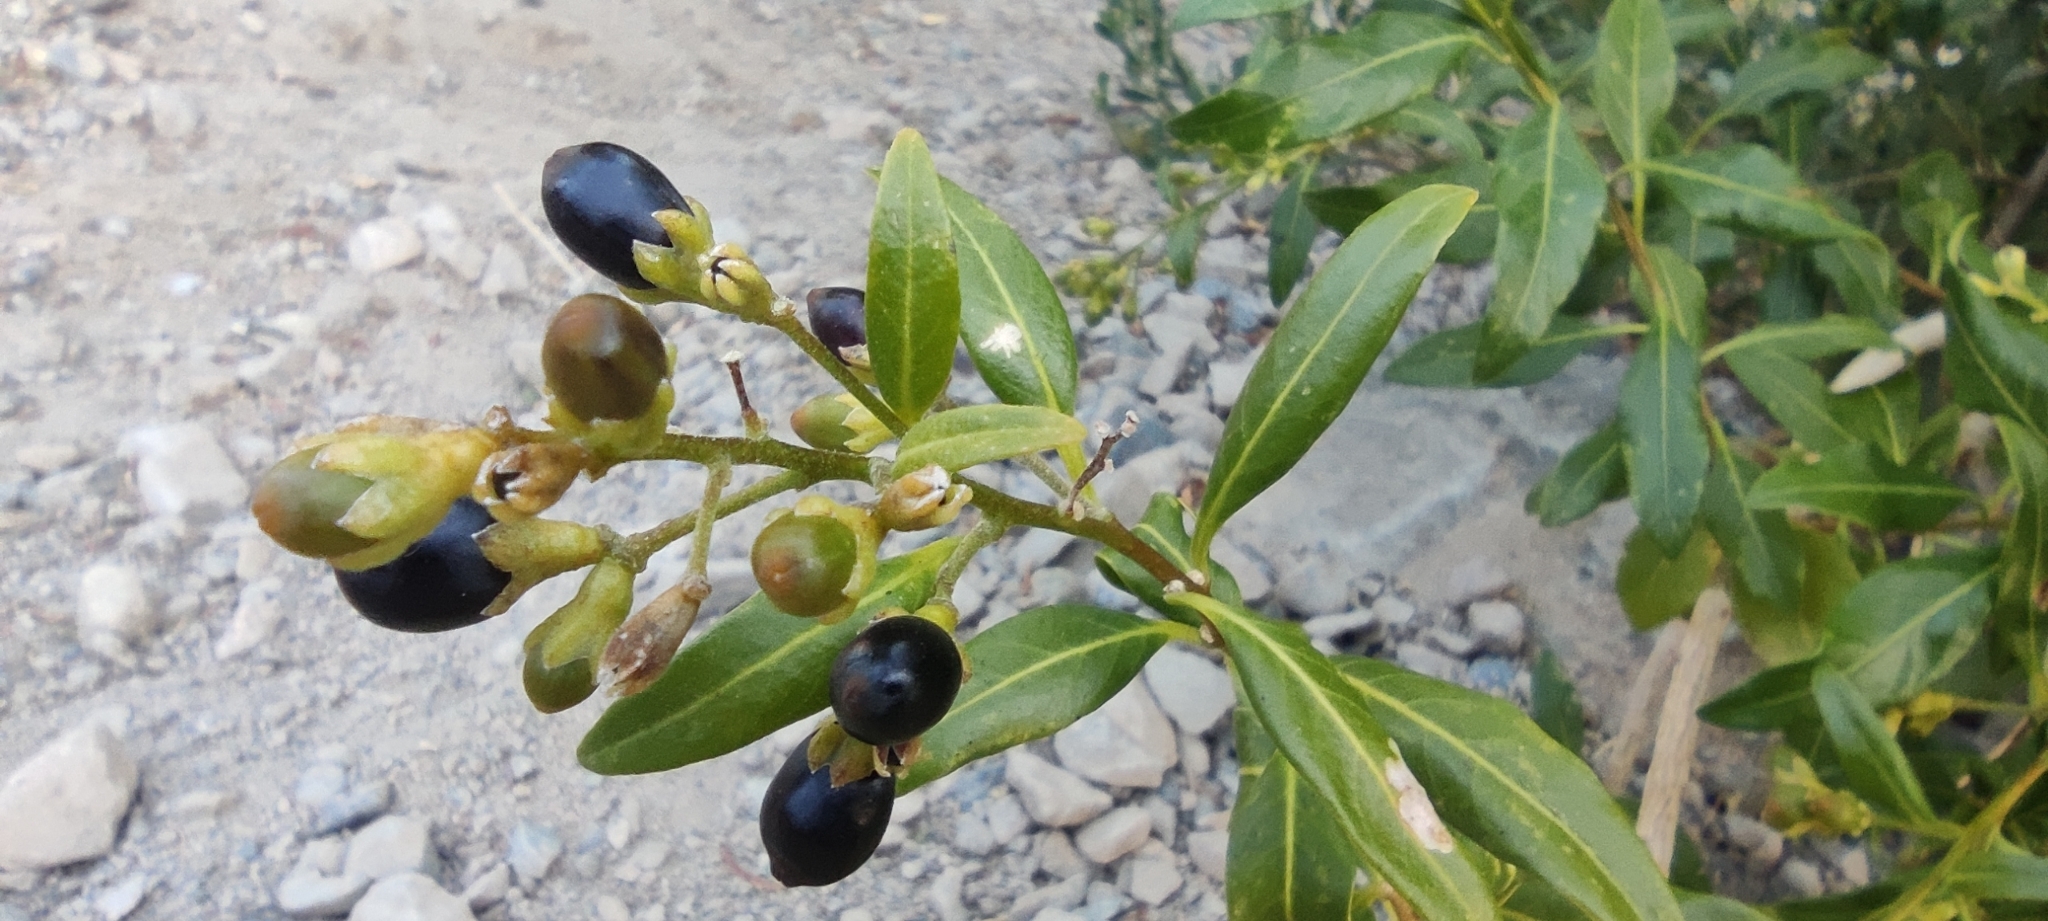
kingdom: Plantae
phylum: Tracheophyta
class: Magnoliopsida
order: Solanales
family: Solanaceae
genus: Cestrum
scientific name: Cestrum parqui
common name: Chilean cestrum
